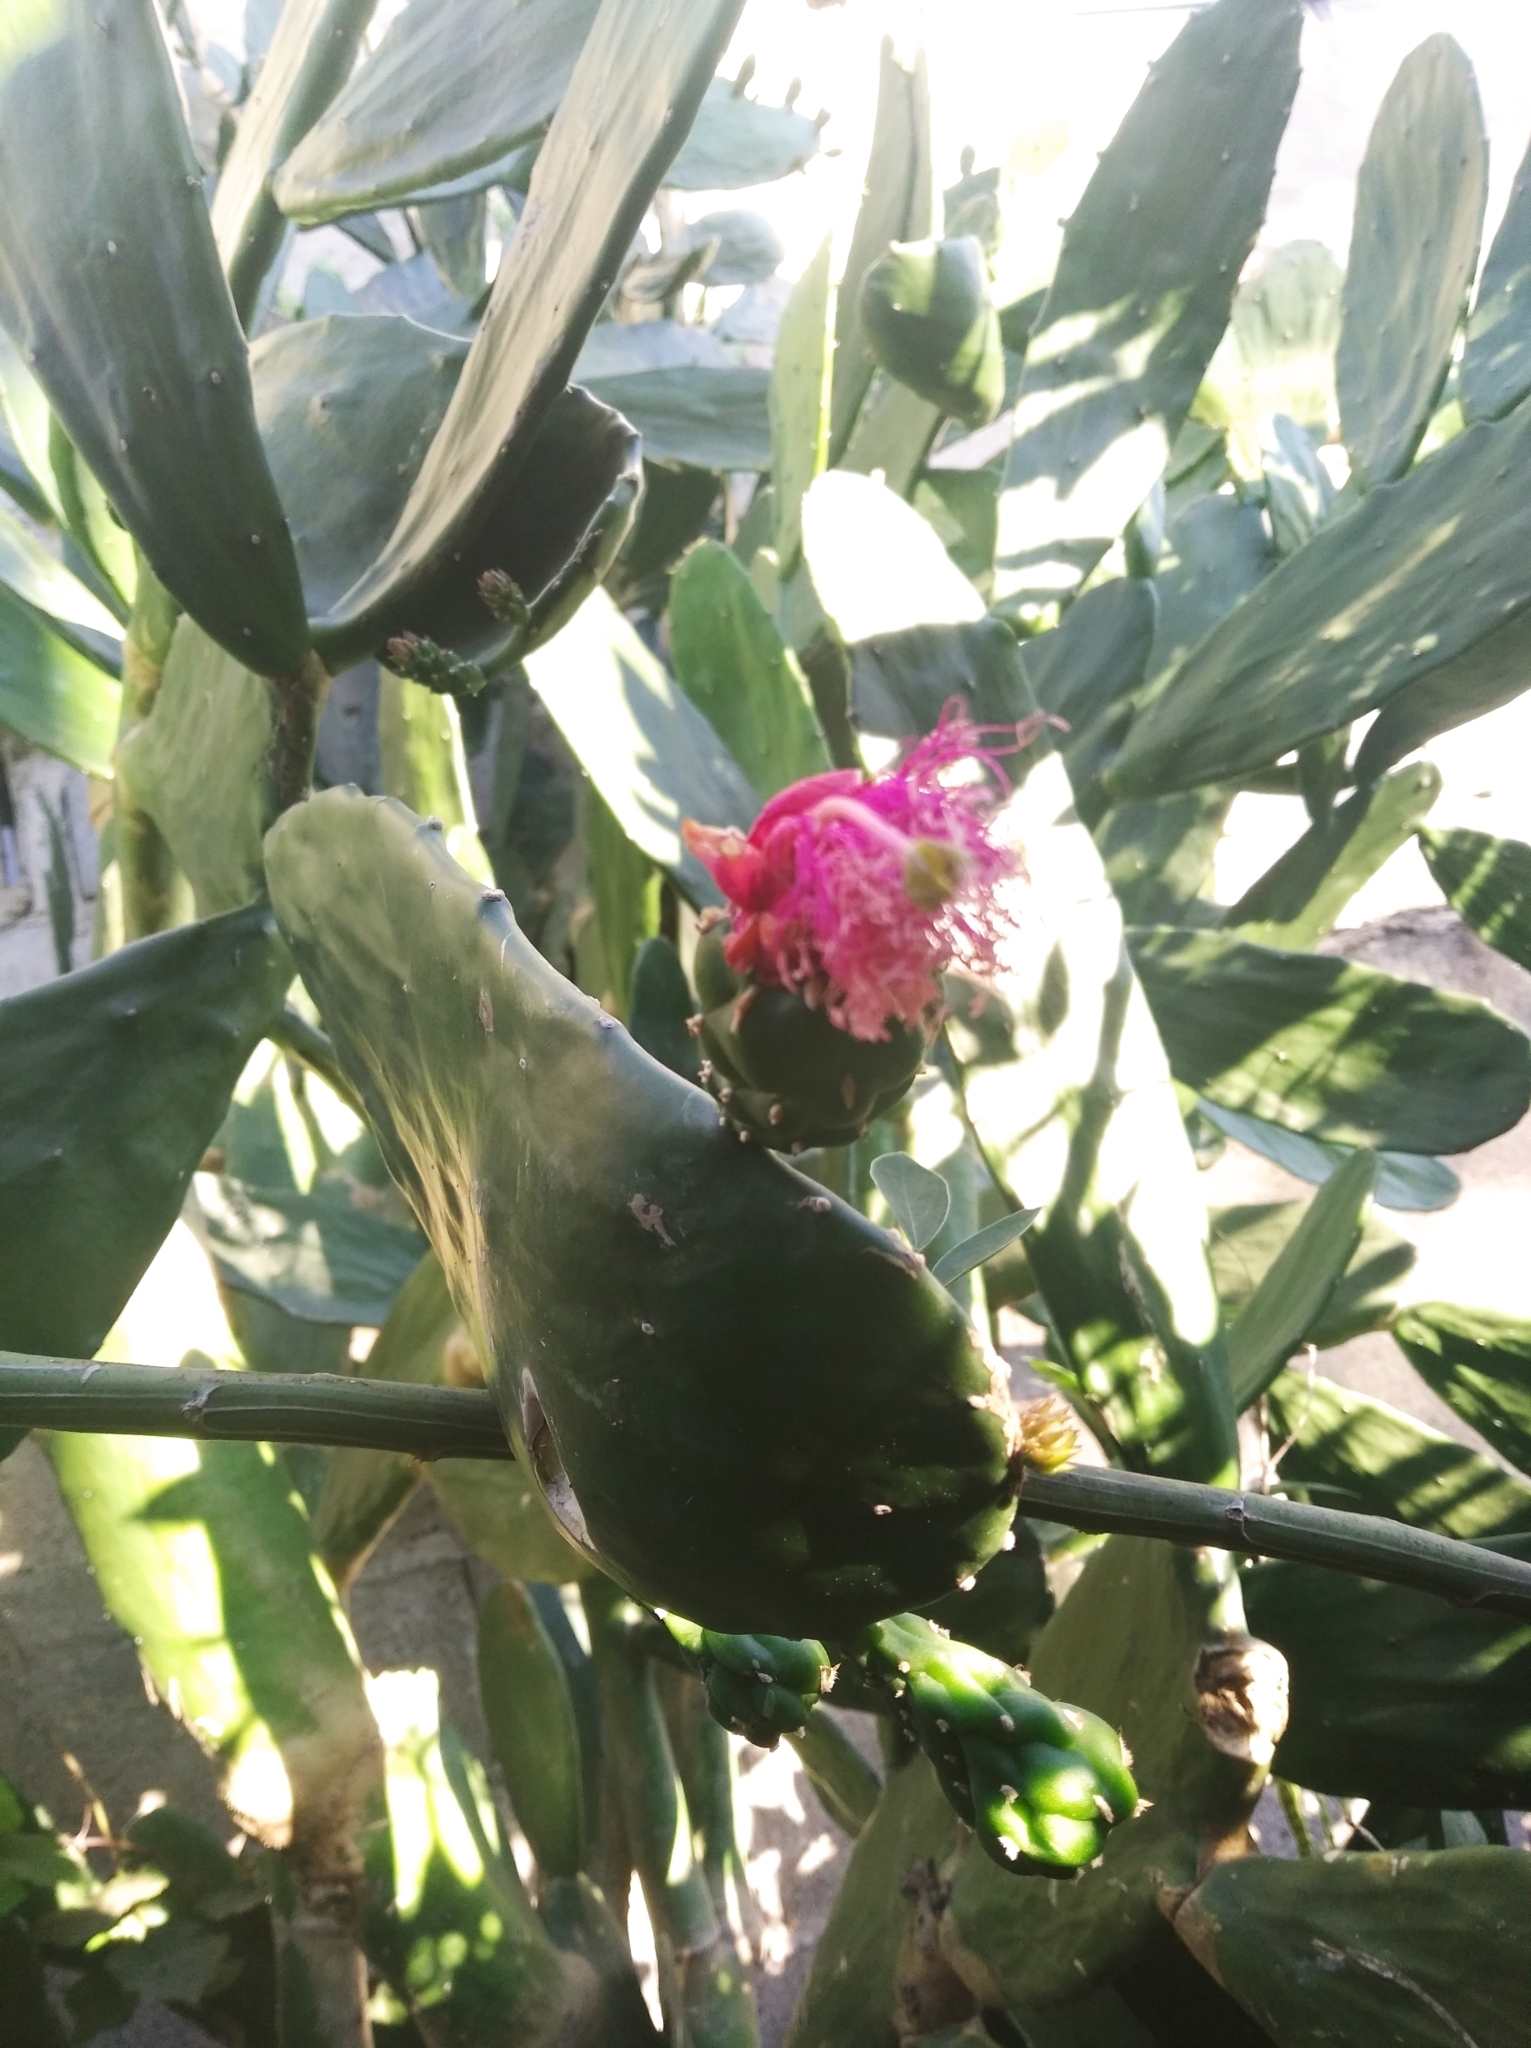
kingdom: Plantae
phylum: Tracheophyta
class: Magnoliopsida
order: Caryophyllales
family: Cactaceae
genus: Opuntia
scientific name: Opuntia cochenillifera
